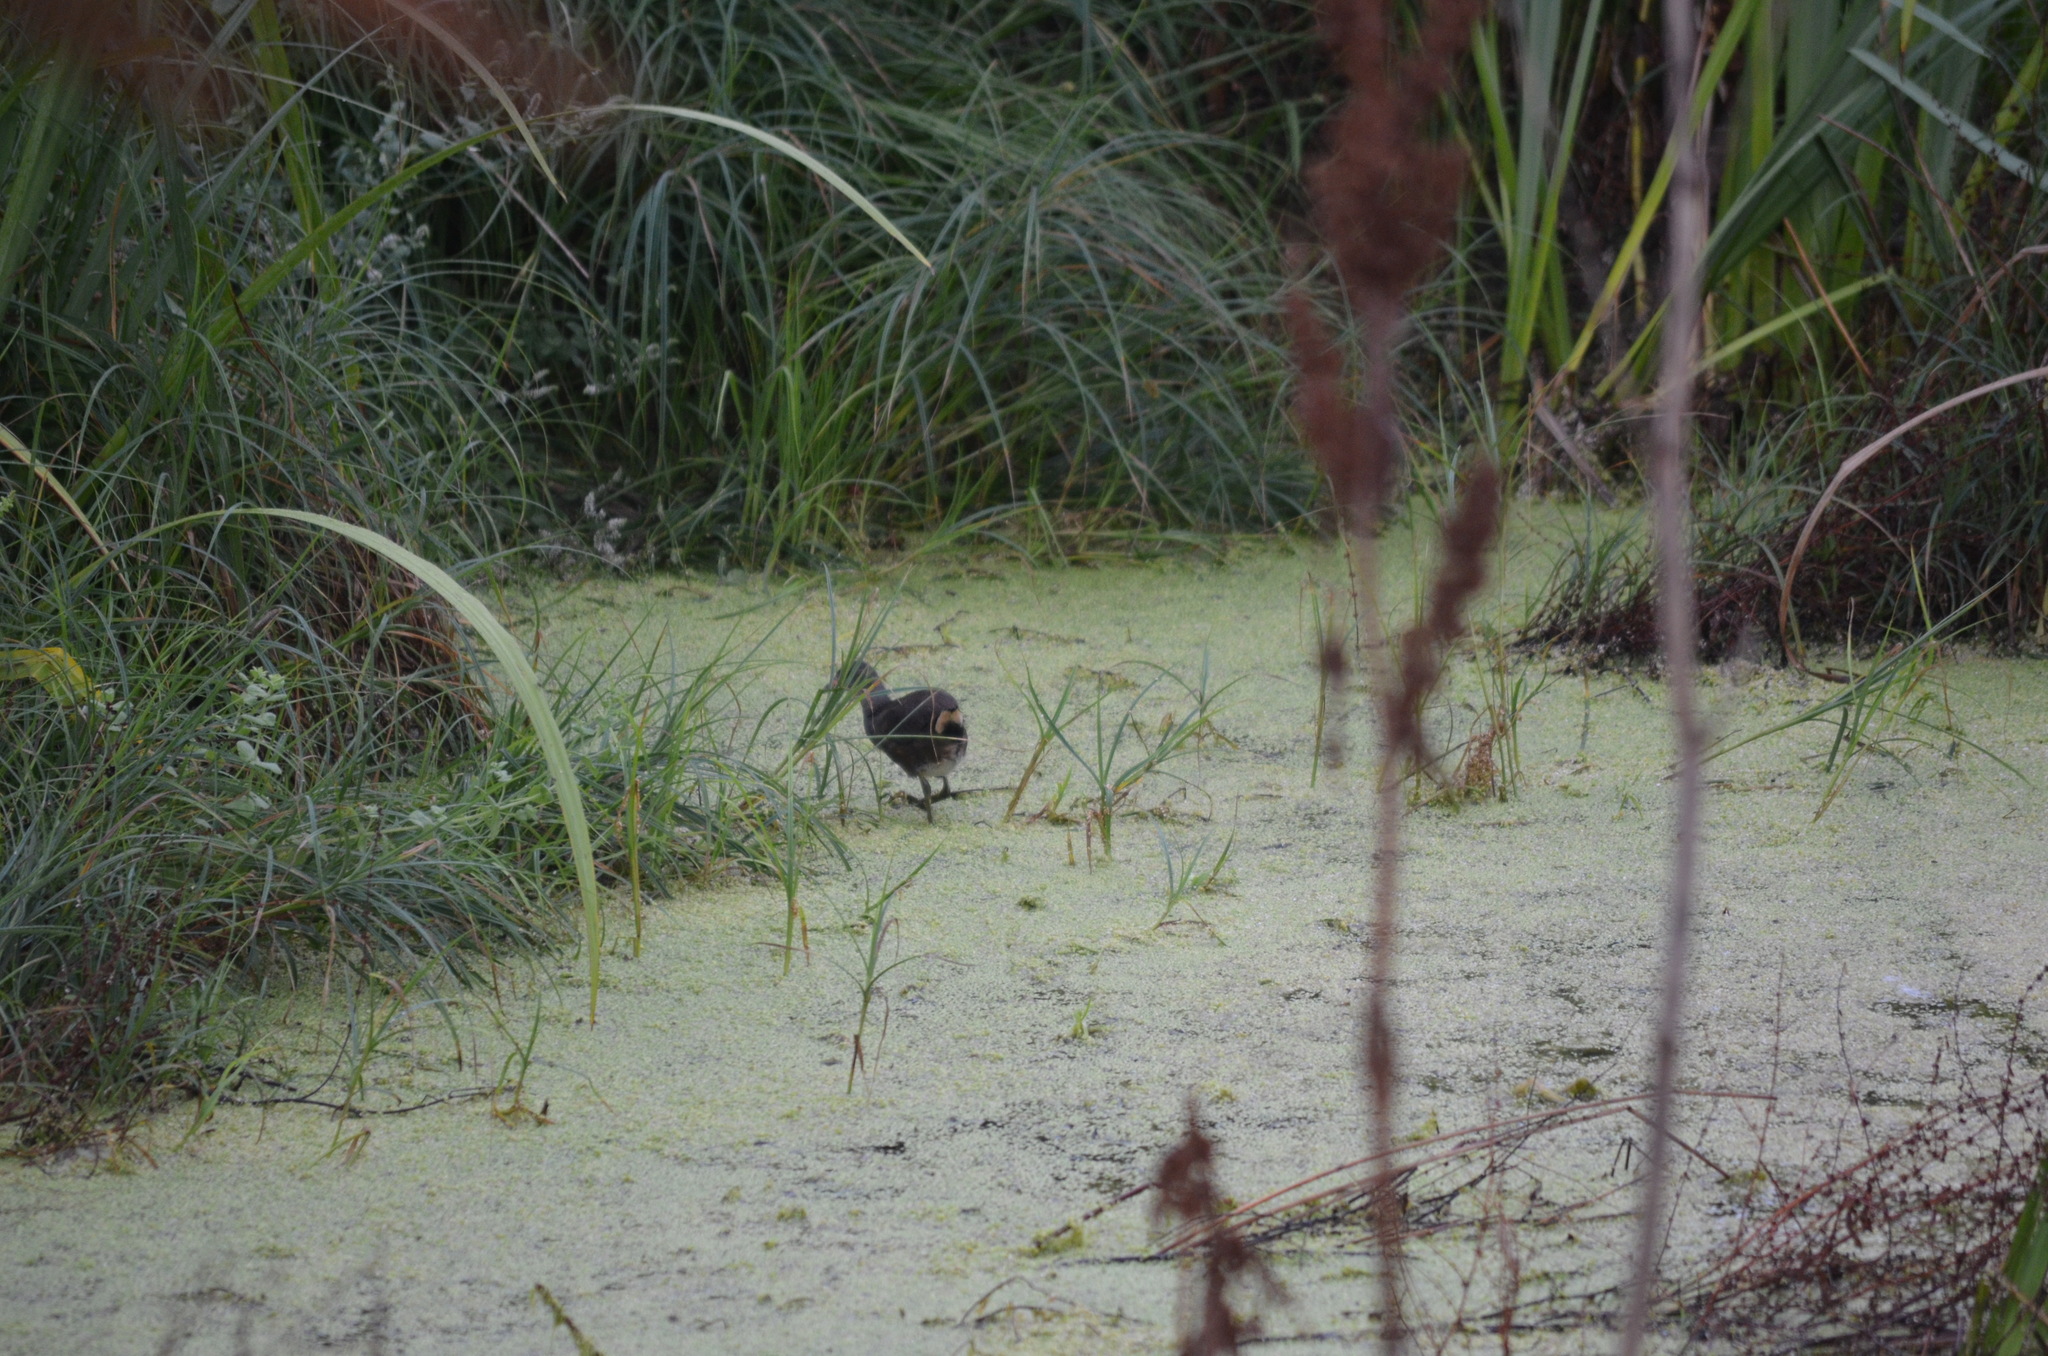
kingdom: Animalia
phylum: Chordata
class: Aves
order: Gruiformes
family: Rallidae
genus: Gallinula
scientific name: Gallinula chloropus
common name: Common moorhen
